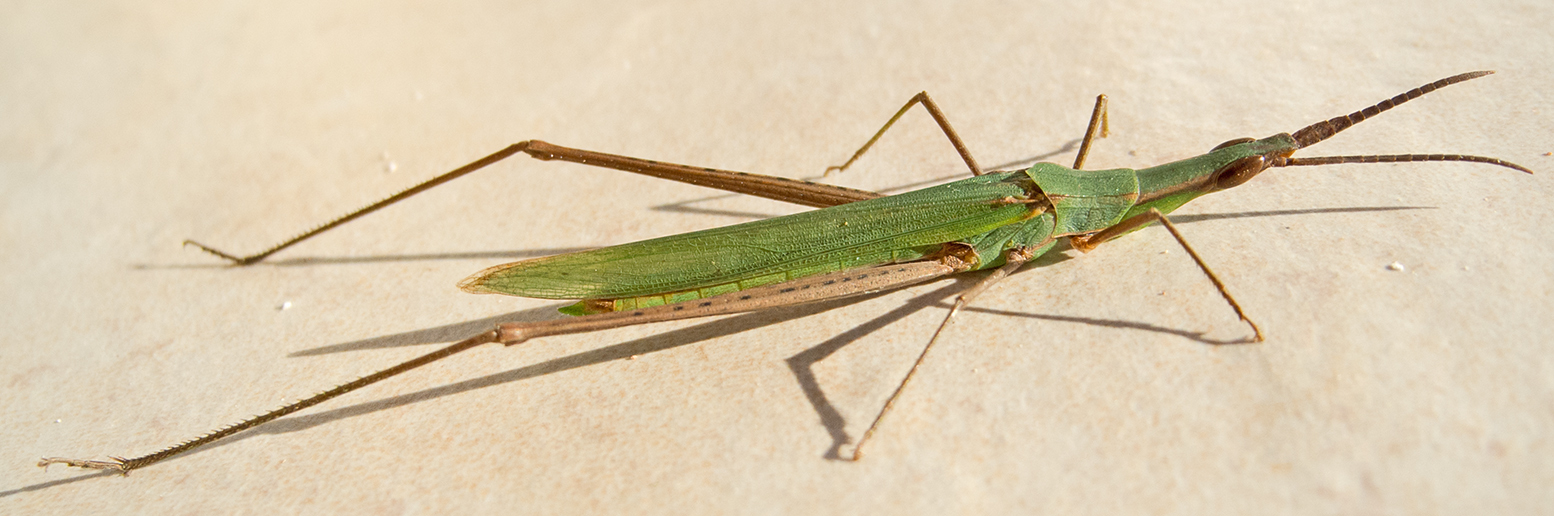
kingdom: Animalia
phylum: Arthropoda
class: Insecta
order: Orthoptera
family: Acrididae
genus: Acrida
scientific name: Acrida ungarica
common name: Common cone-headed grasshopper
